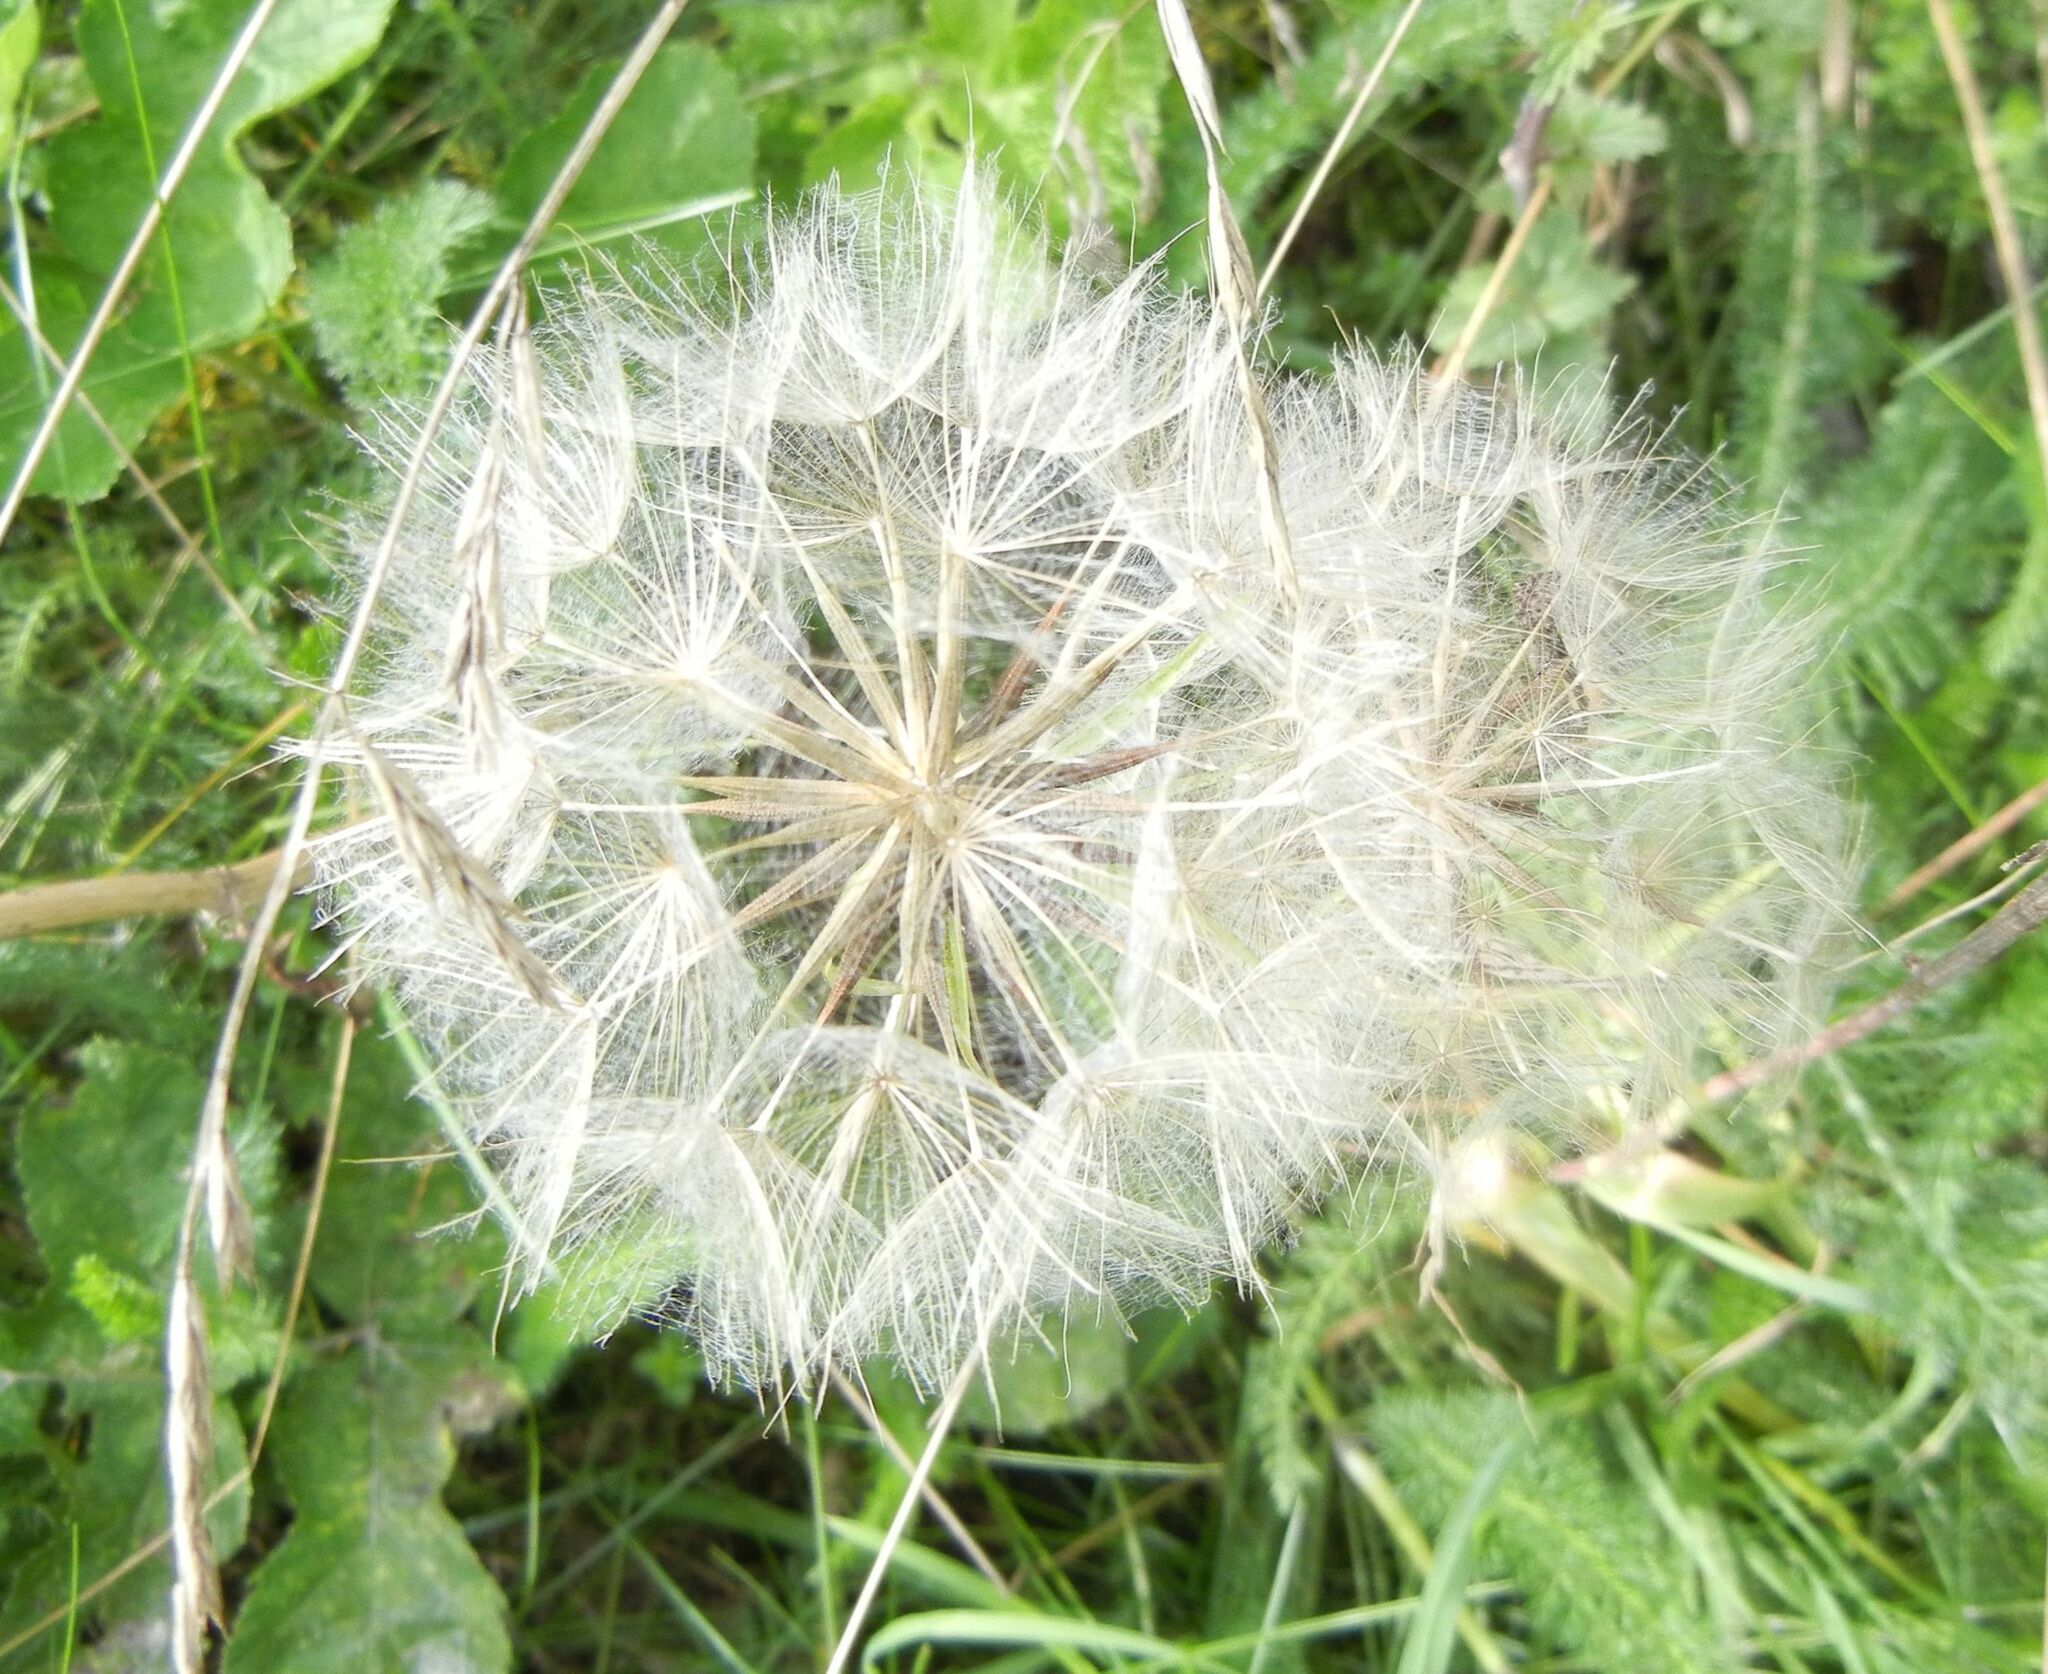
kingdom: Plantae
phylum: Tracheophyta
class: Magnoliopsida
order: Asterales
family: Asteraceae
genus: Tragopogon
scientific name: Tragopogon pratensis
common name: Goat's-beard
